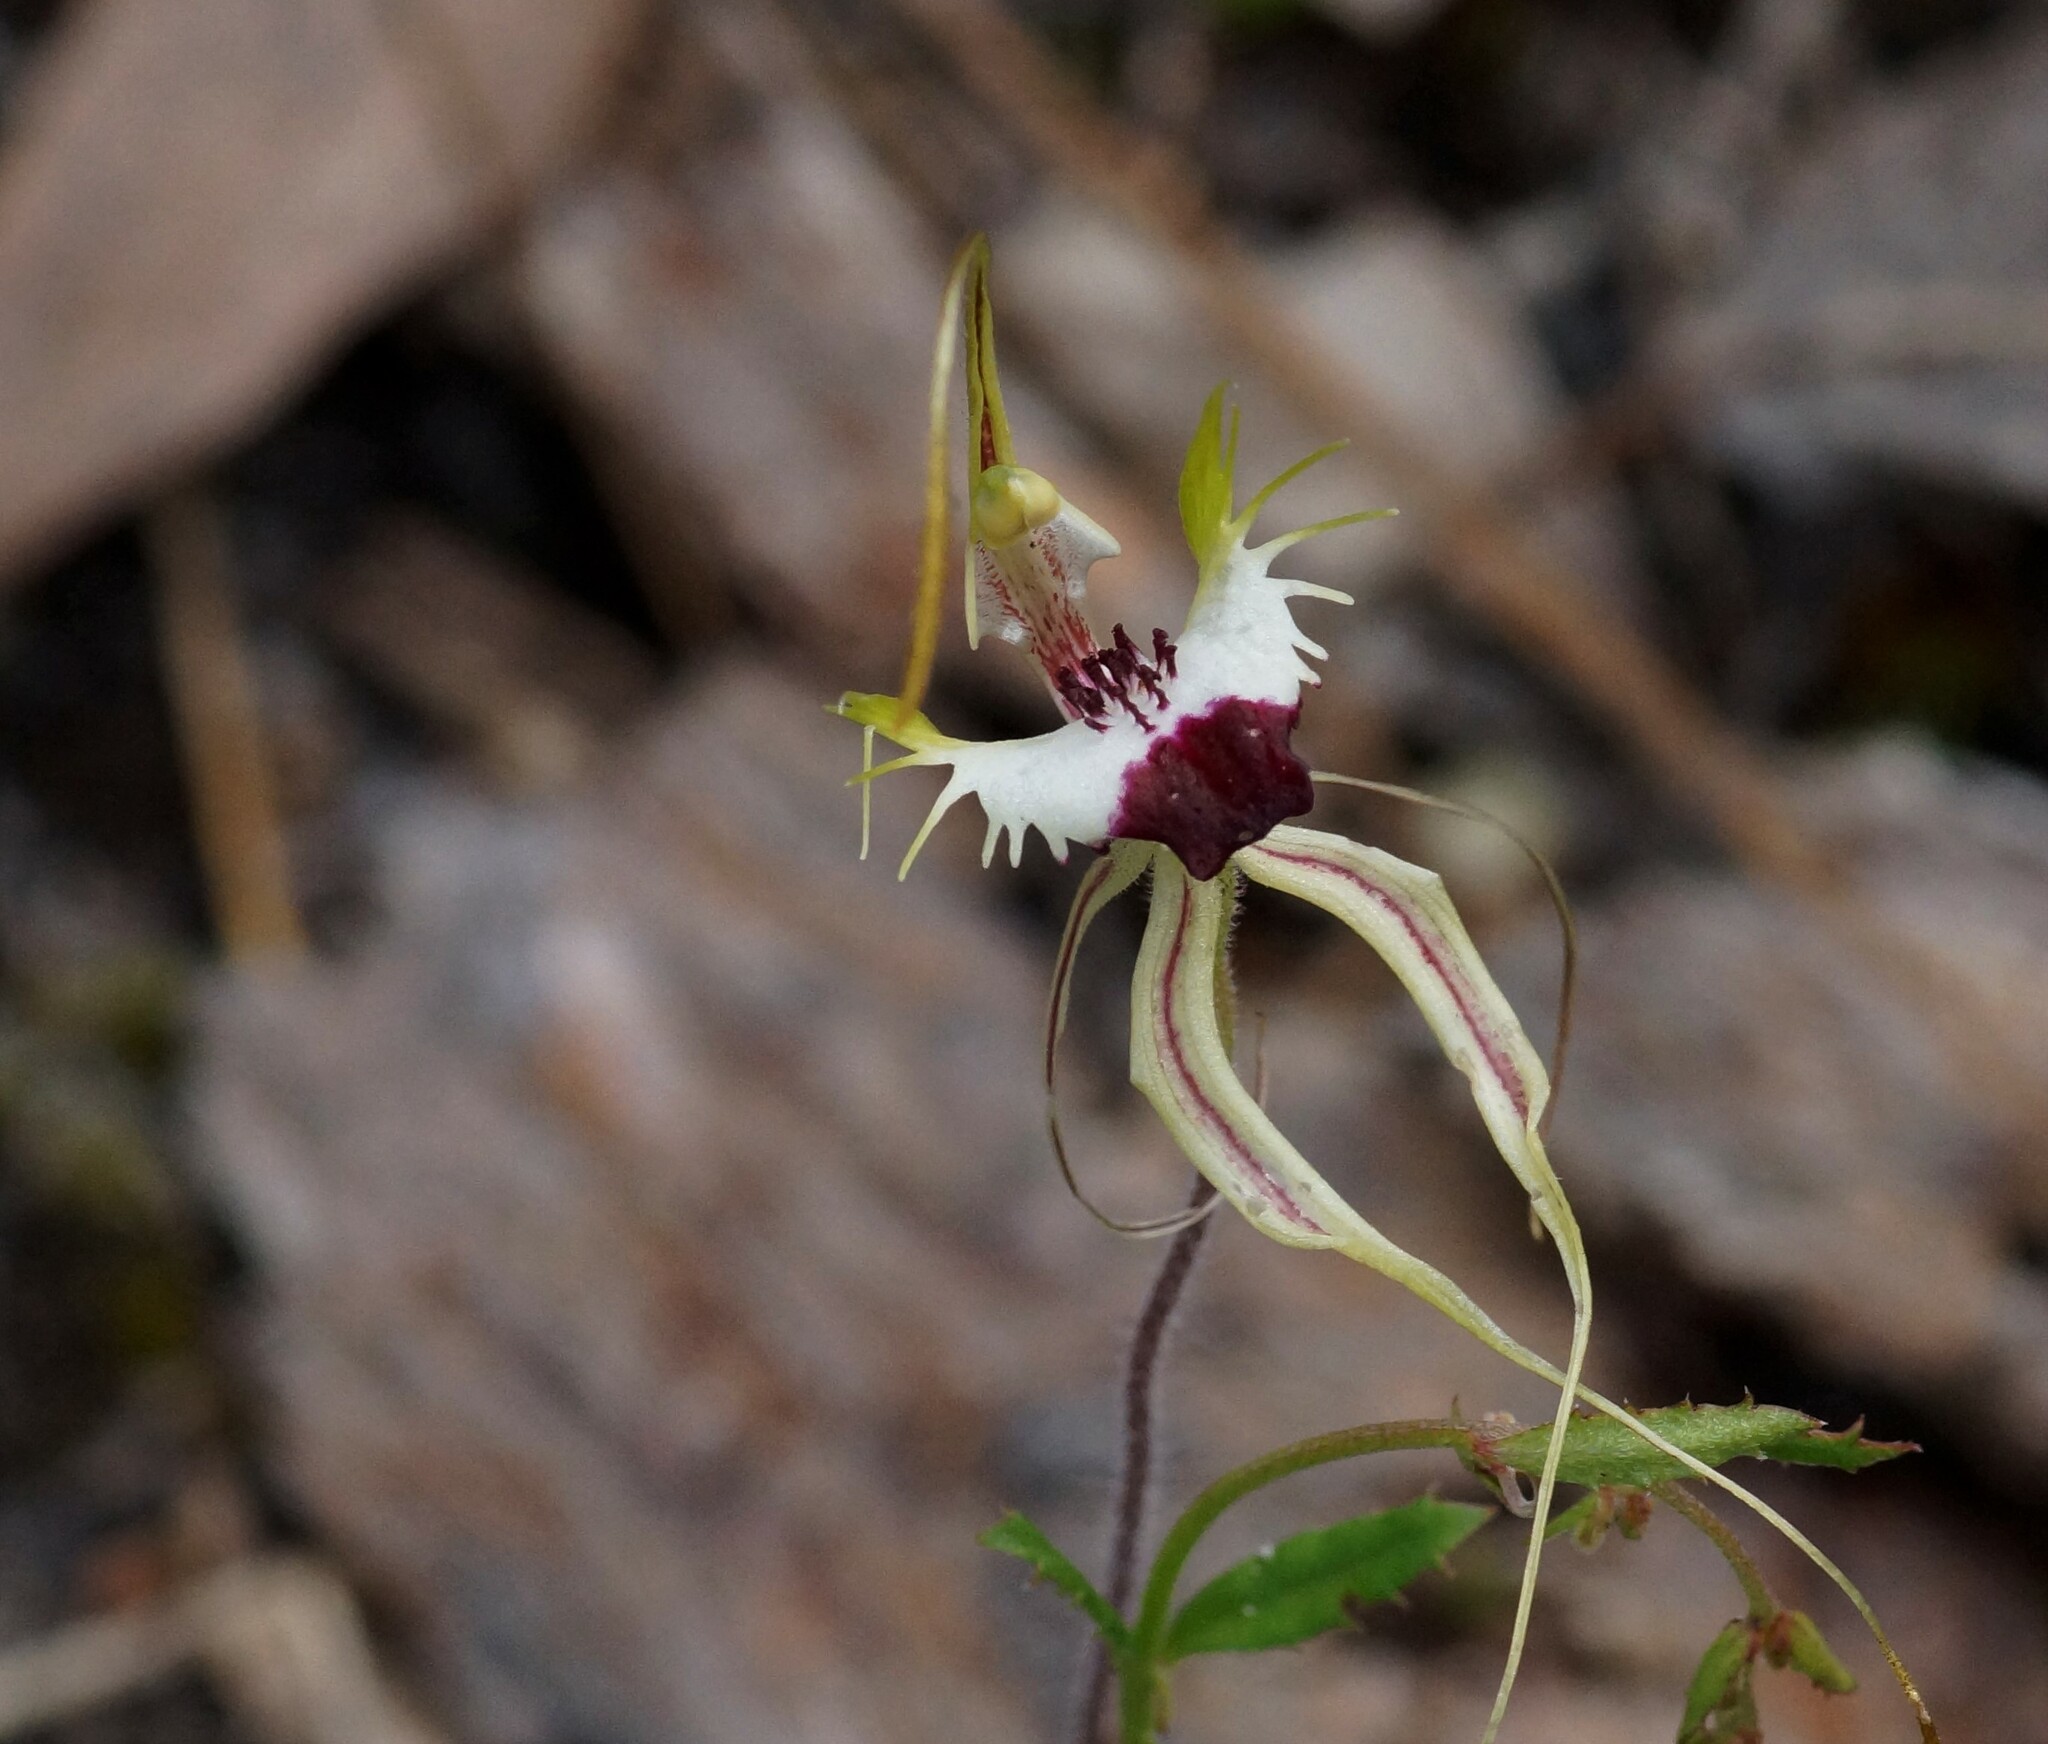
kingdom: Plantae
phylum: Tracheophyta
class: Liliopsida
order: Asparagales
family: Orchidaceae
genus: Caladenia
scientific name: Caladenia tentaculata
